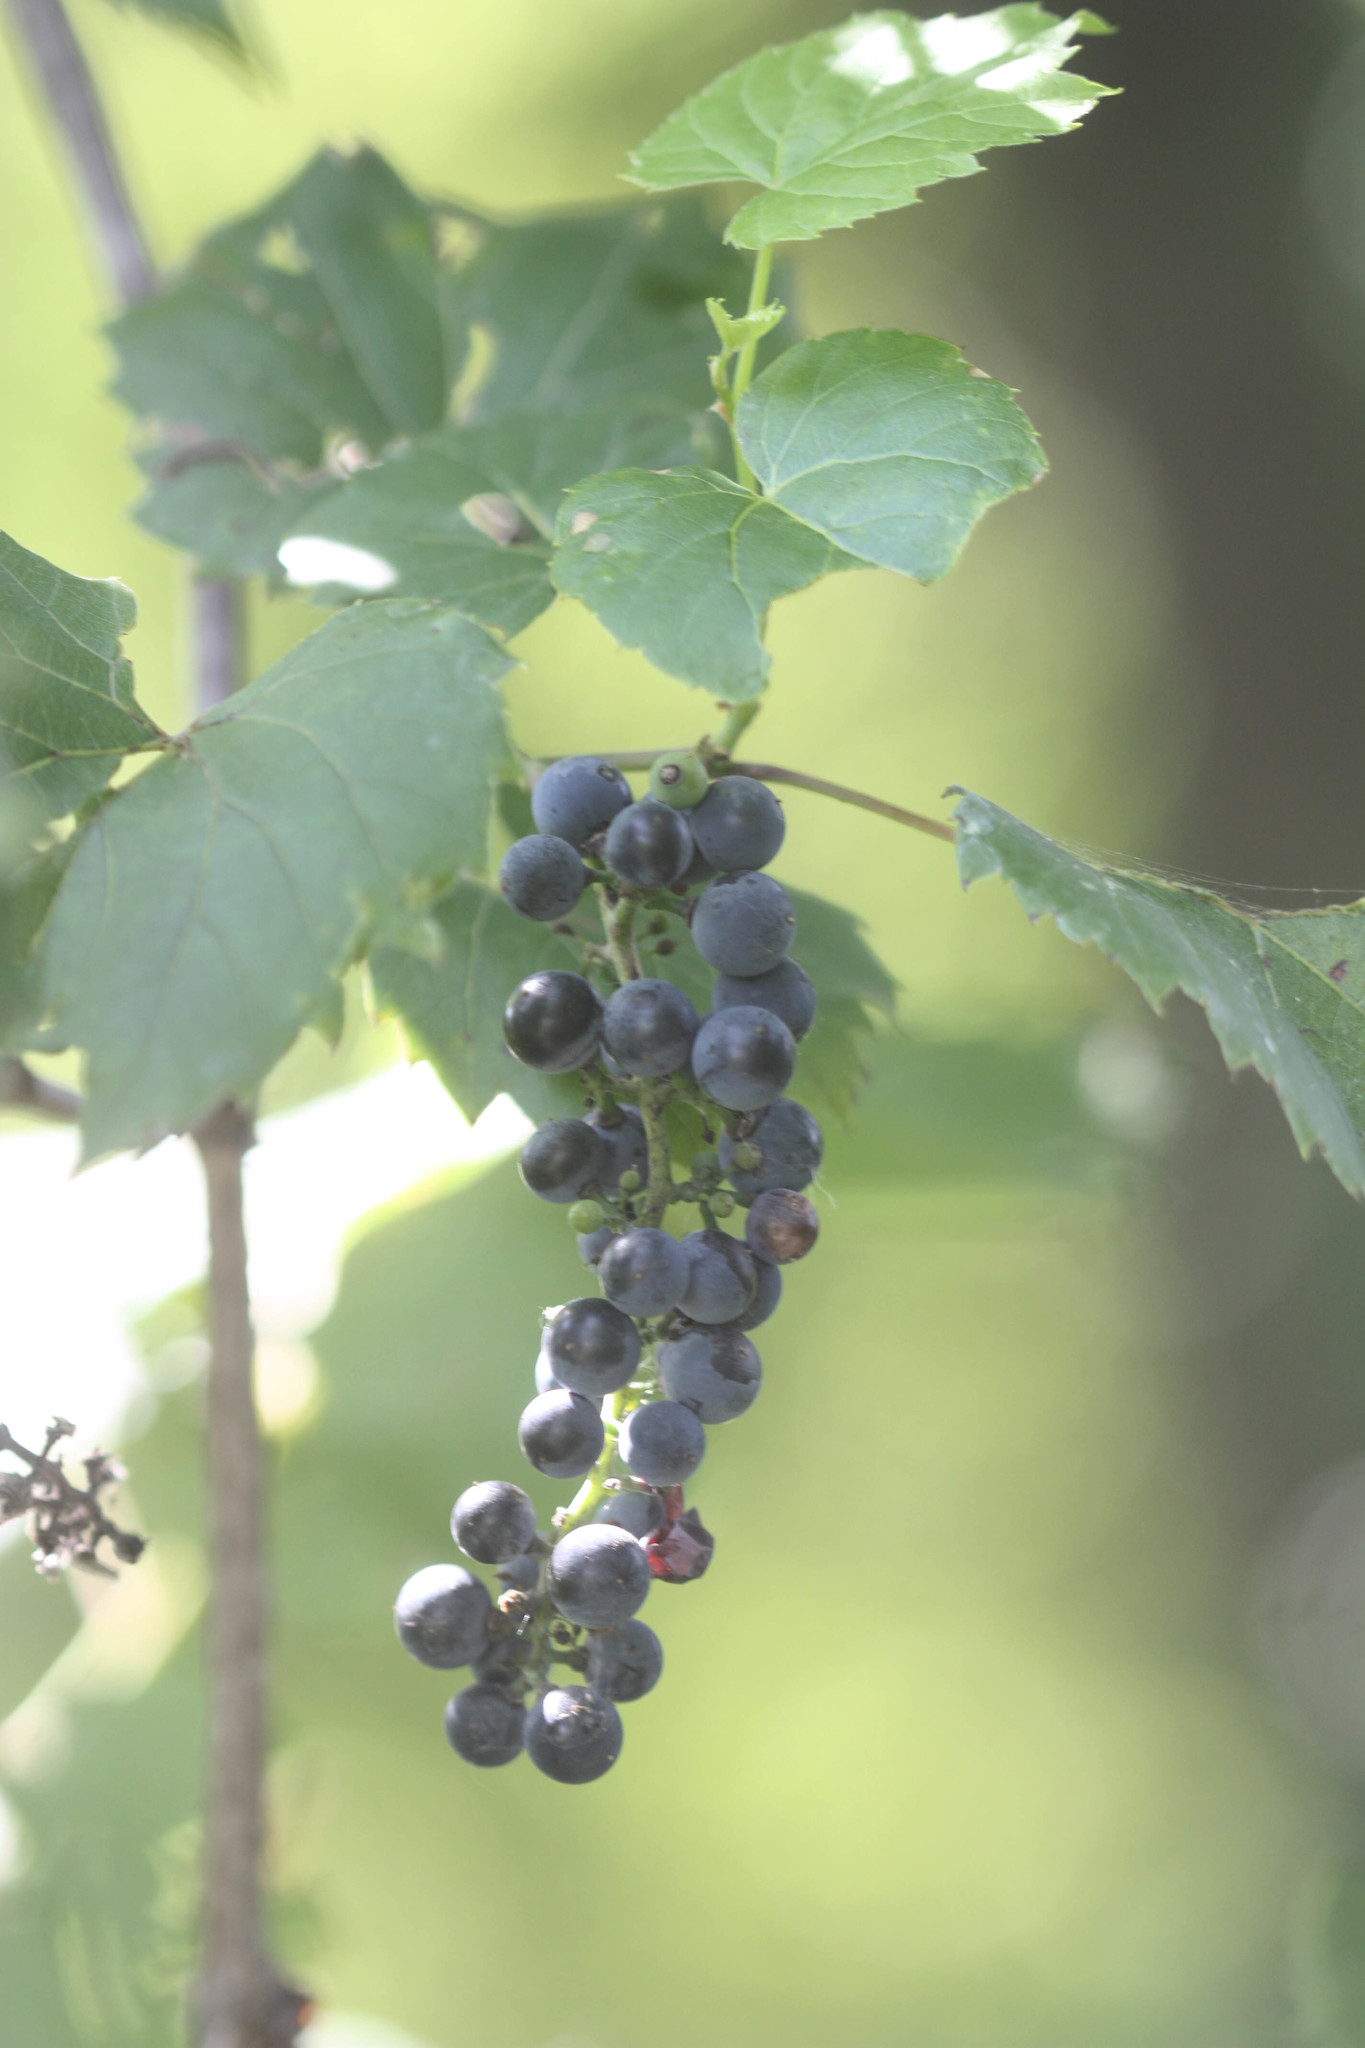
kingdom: Plantae
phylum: Tracheophyta
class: Magnoliopsida
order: Vitales
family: Vitaceae
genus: Vitis
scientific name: Vitis riparia
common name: Frost grape
